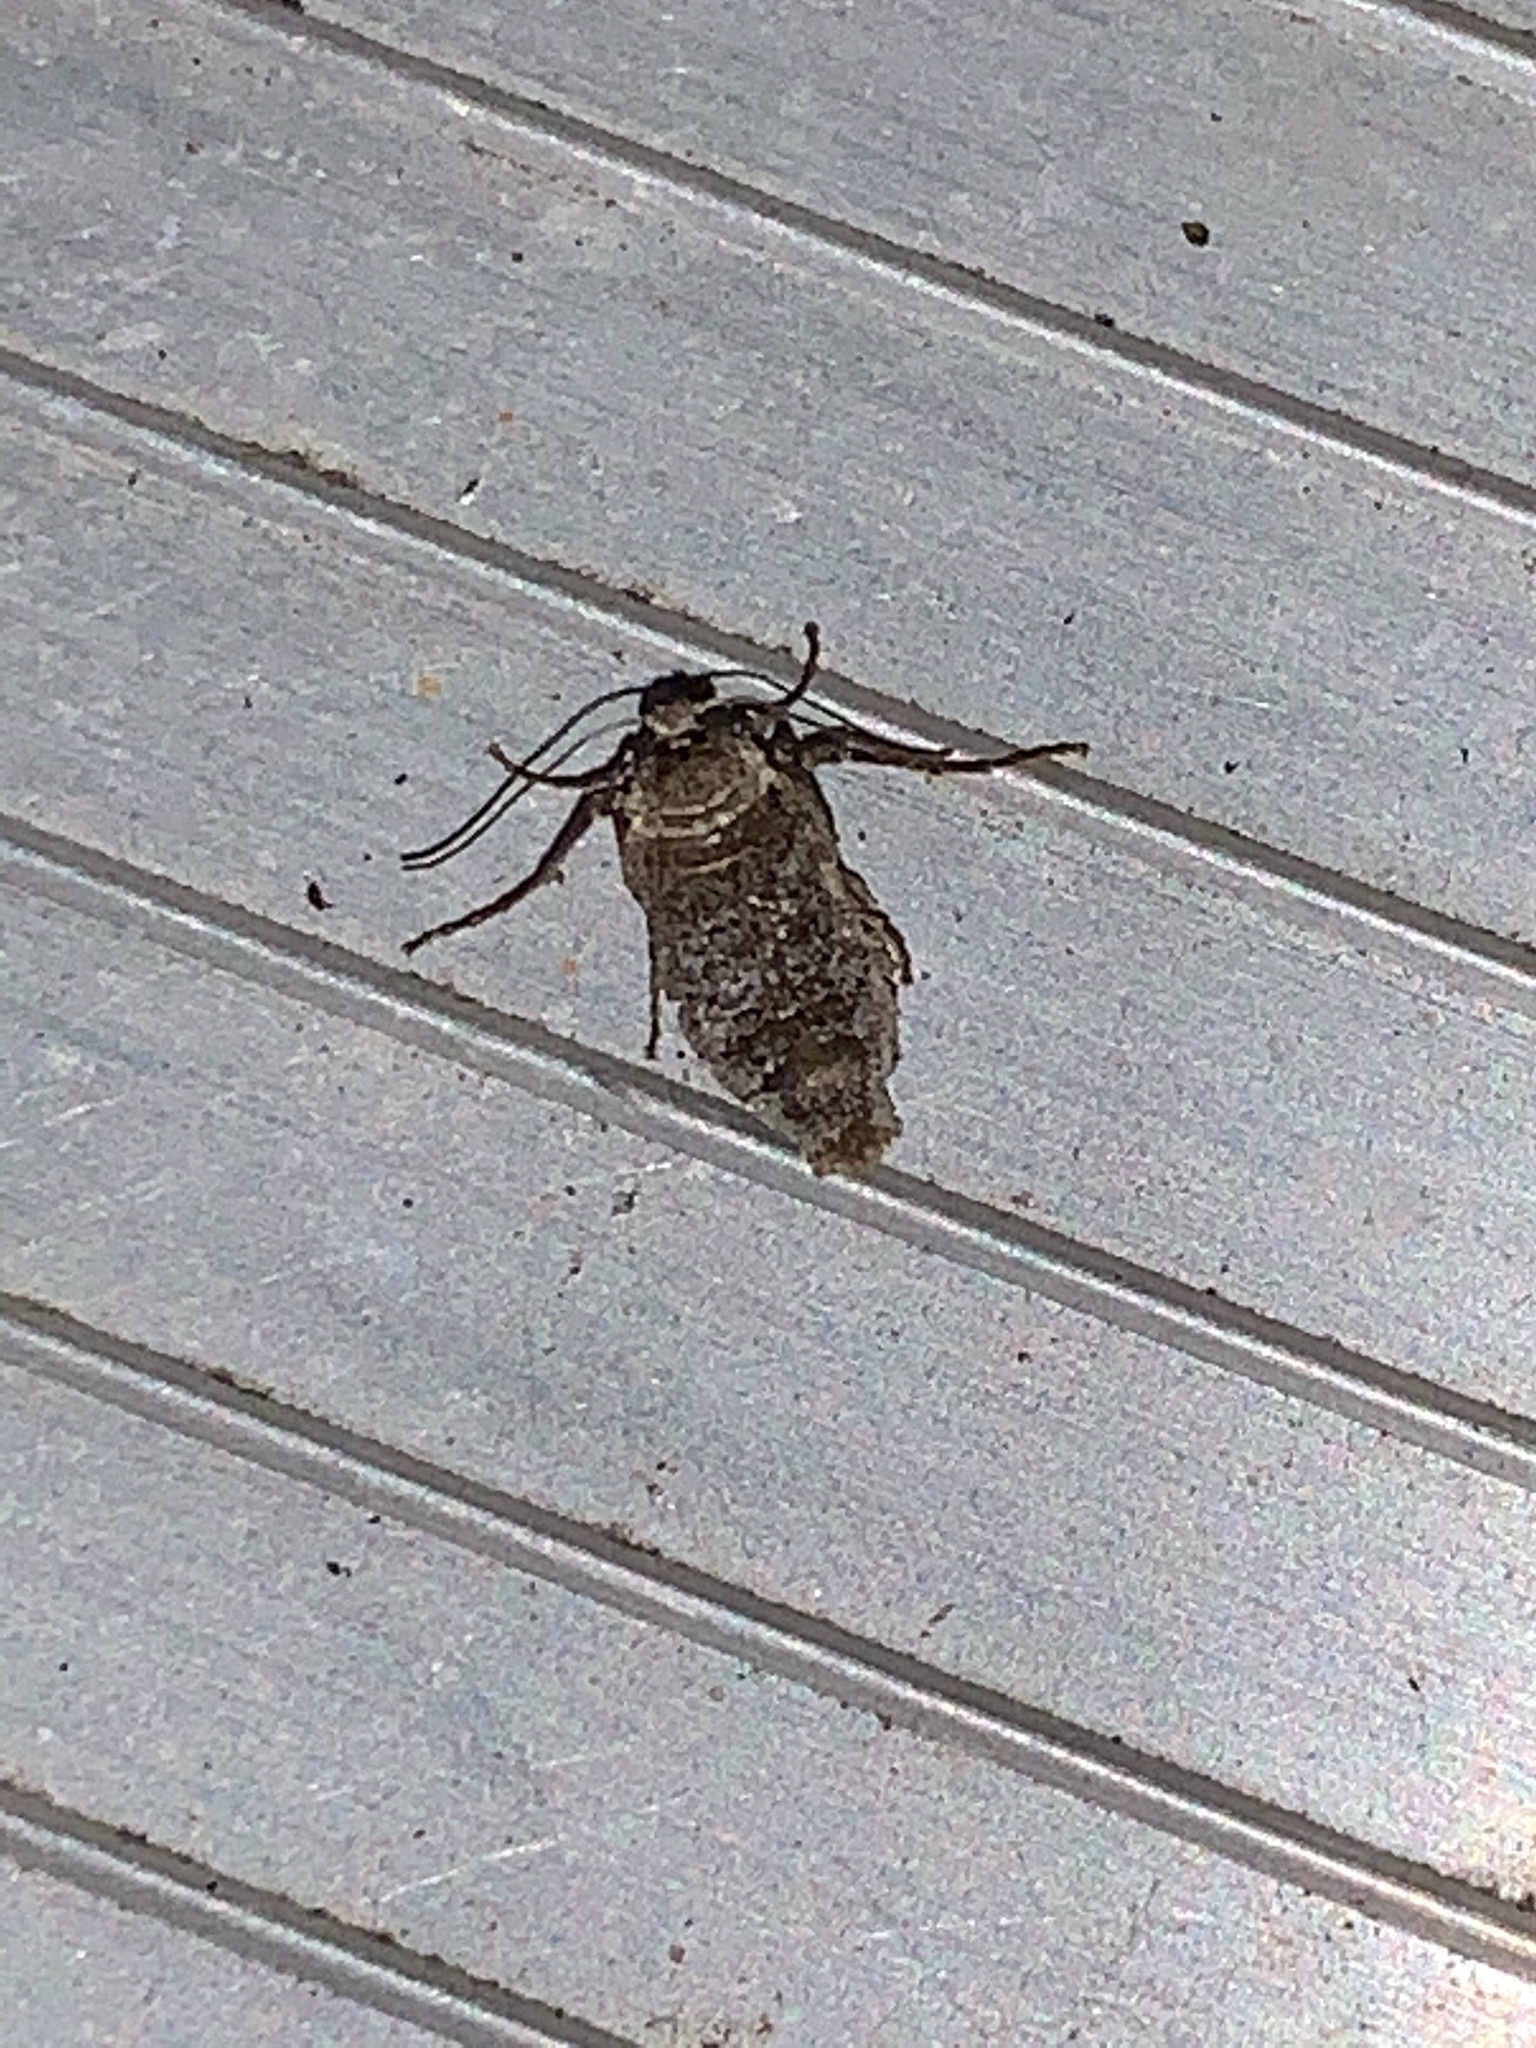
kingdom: Animalia
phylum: Arthropoda
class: Insecta
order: Lepidoptera
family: Geometridae
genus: Alsophila
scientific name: Alsophila pometaria
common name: Fall cankerworm
